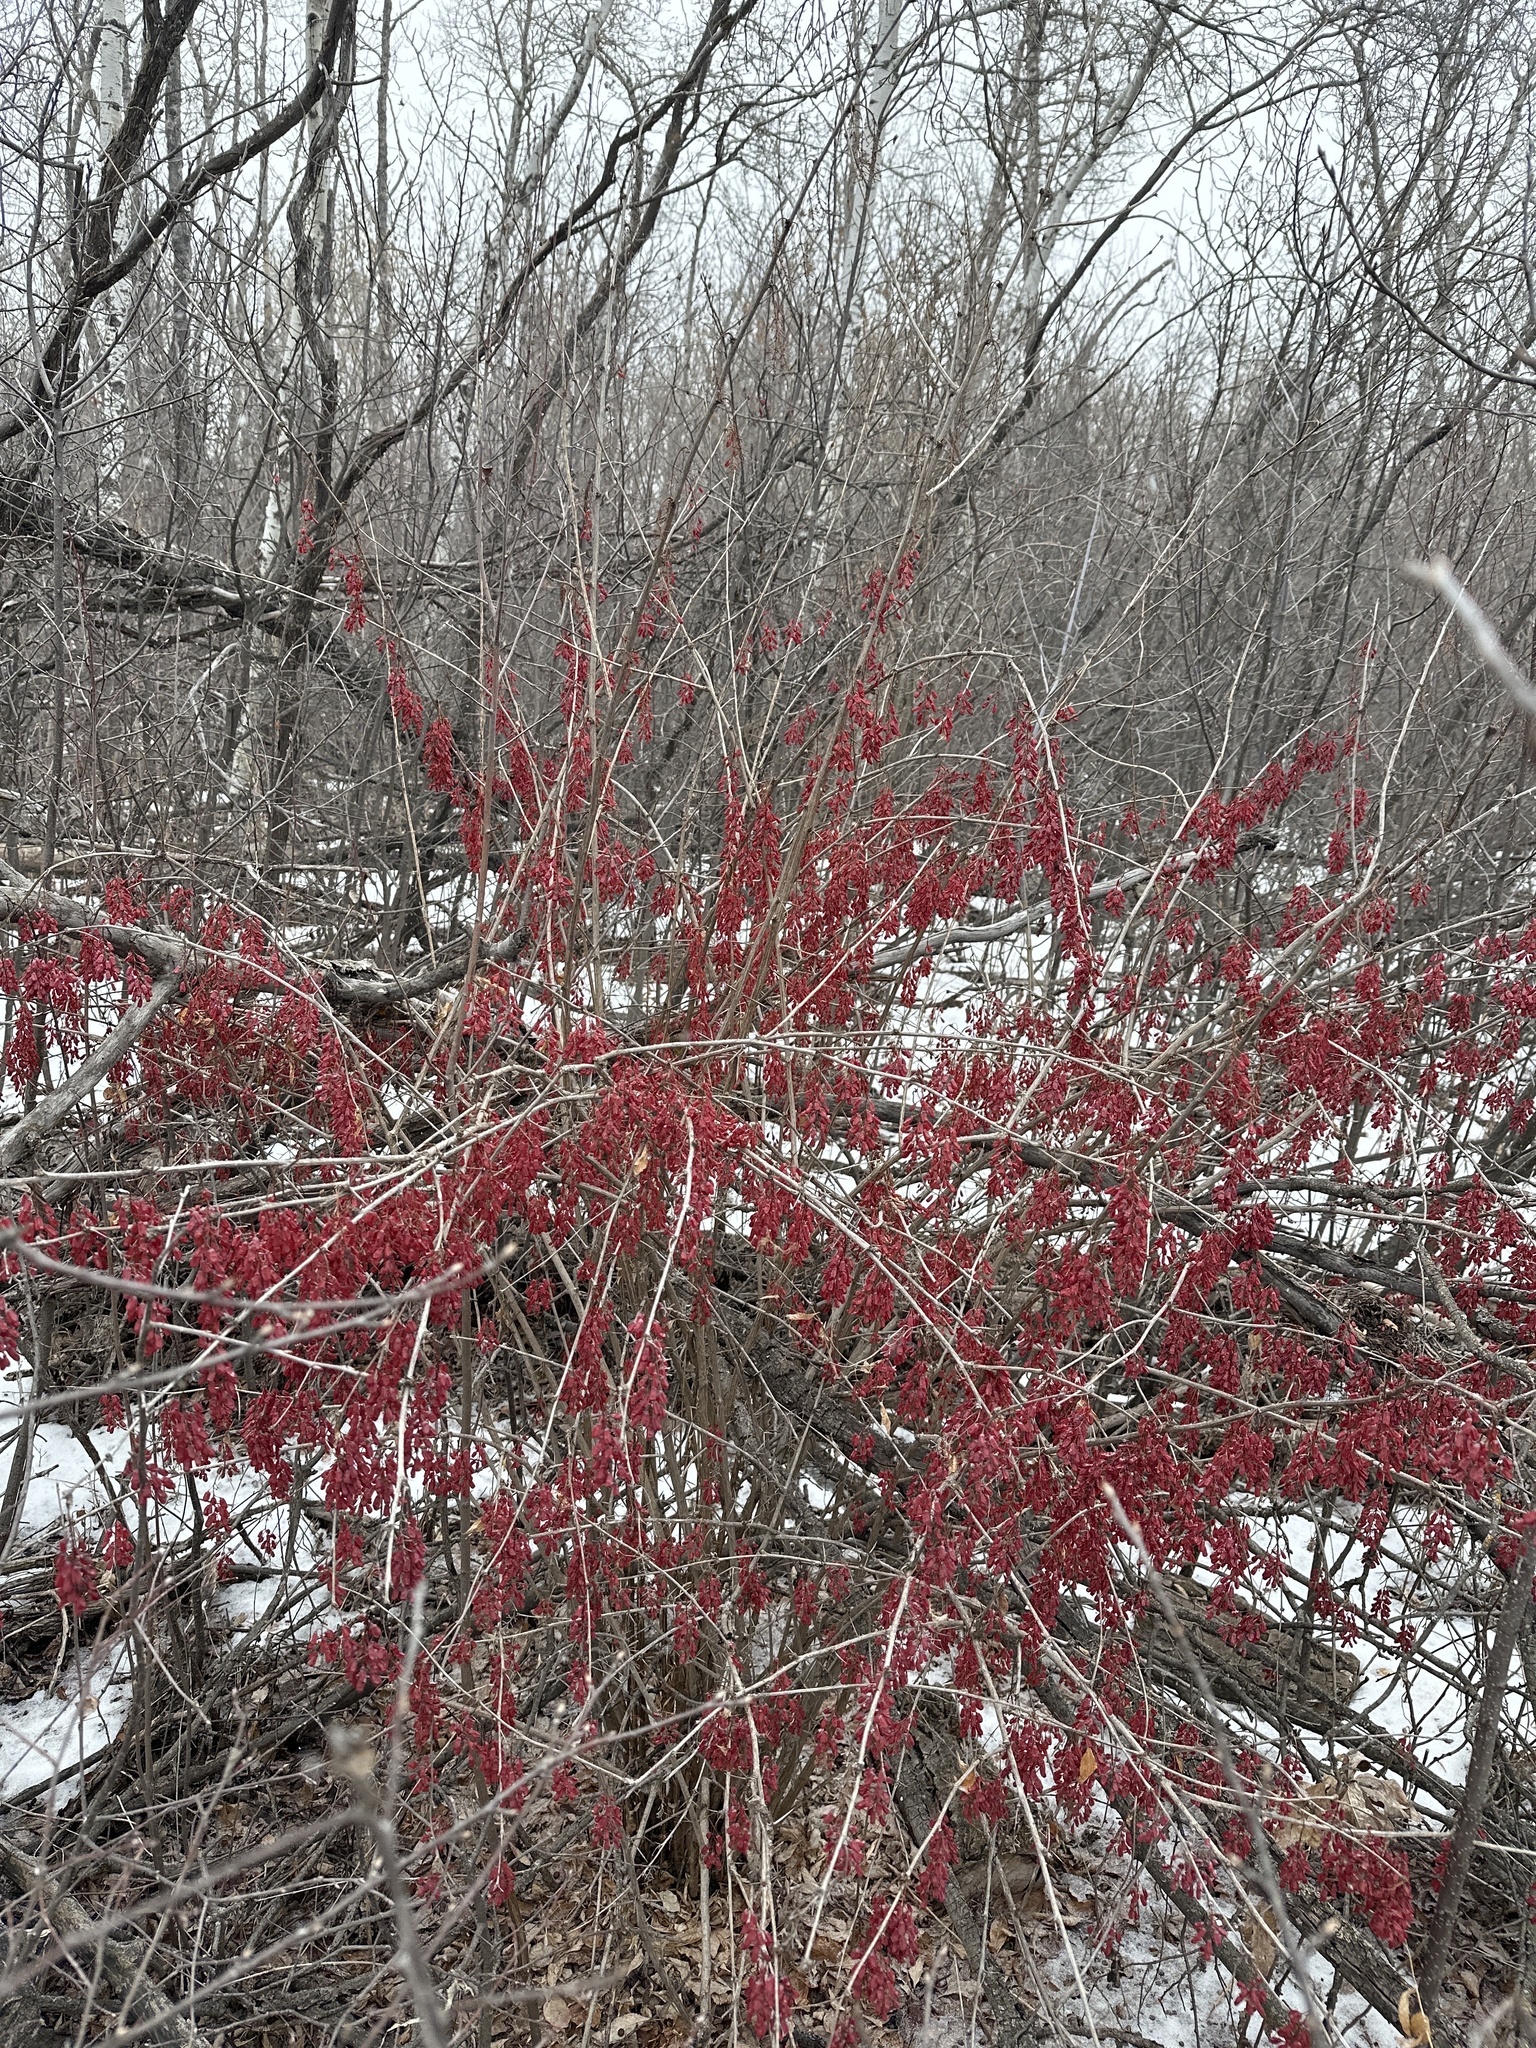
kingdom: Plantae
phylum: Tracheophyta
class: Magnoliopsida
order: Ranunculales
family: Berberidaceae
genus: Berberis
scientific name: Berberis vulgaris
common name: Barberry
